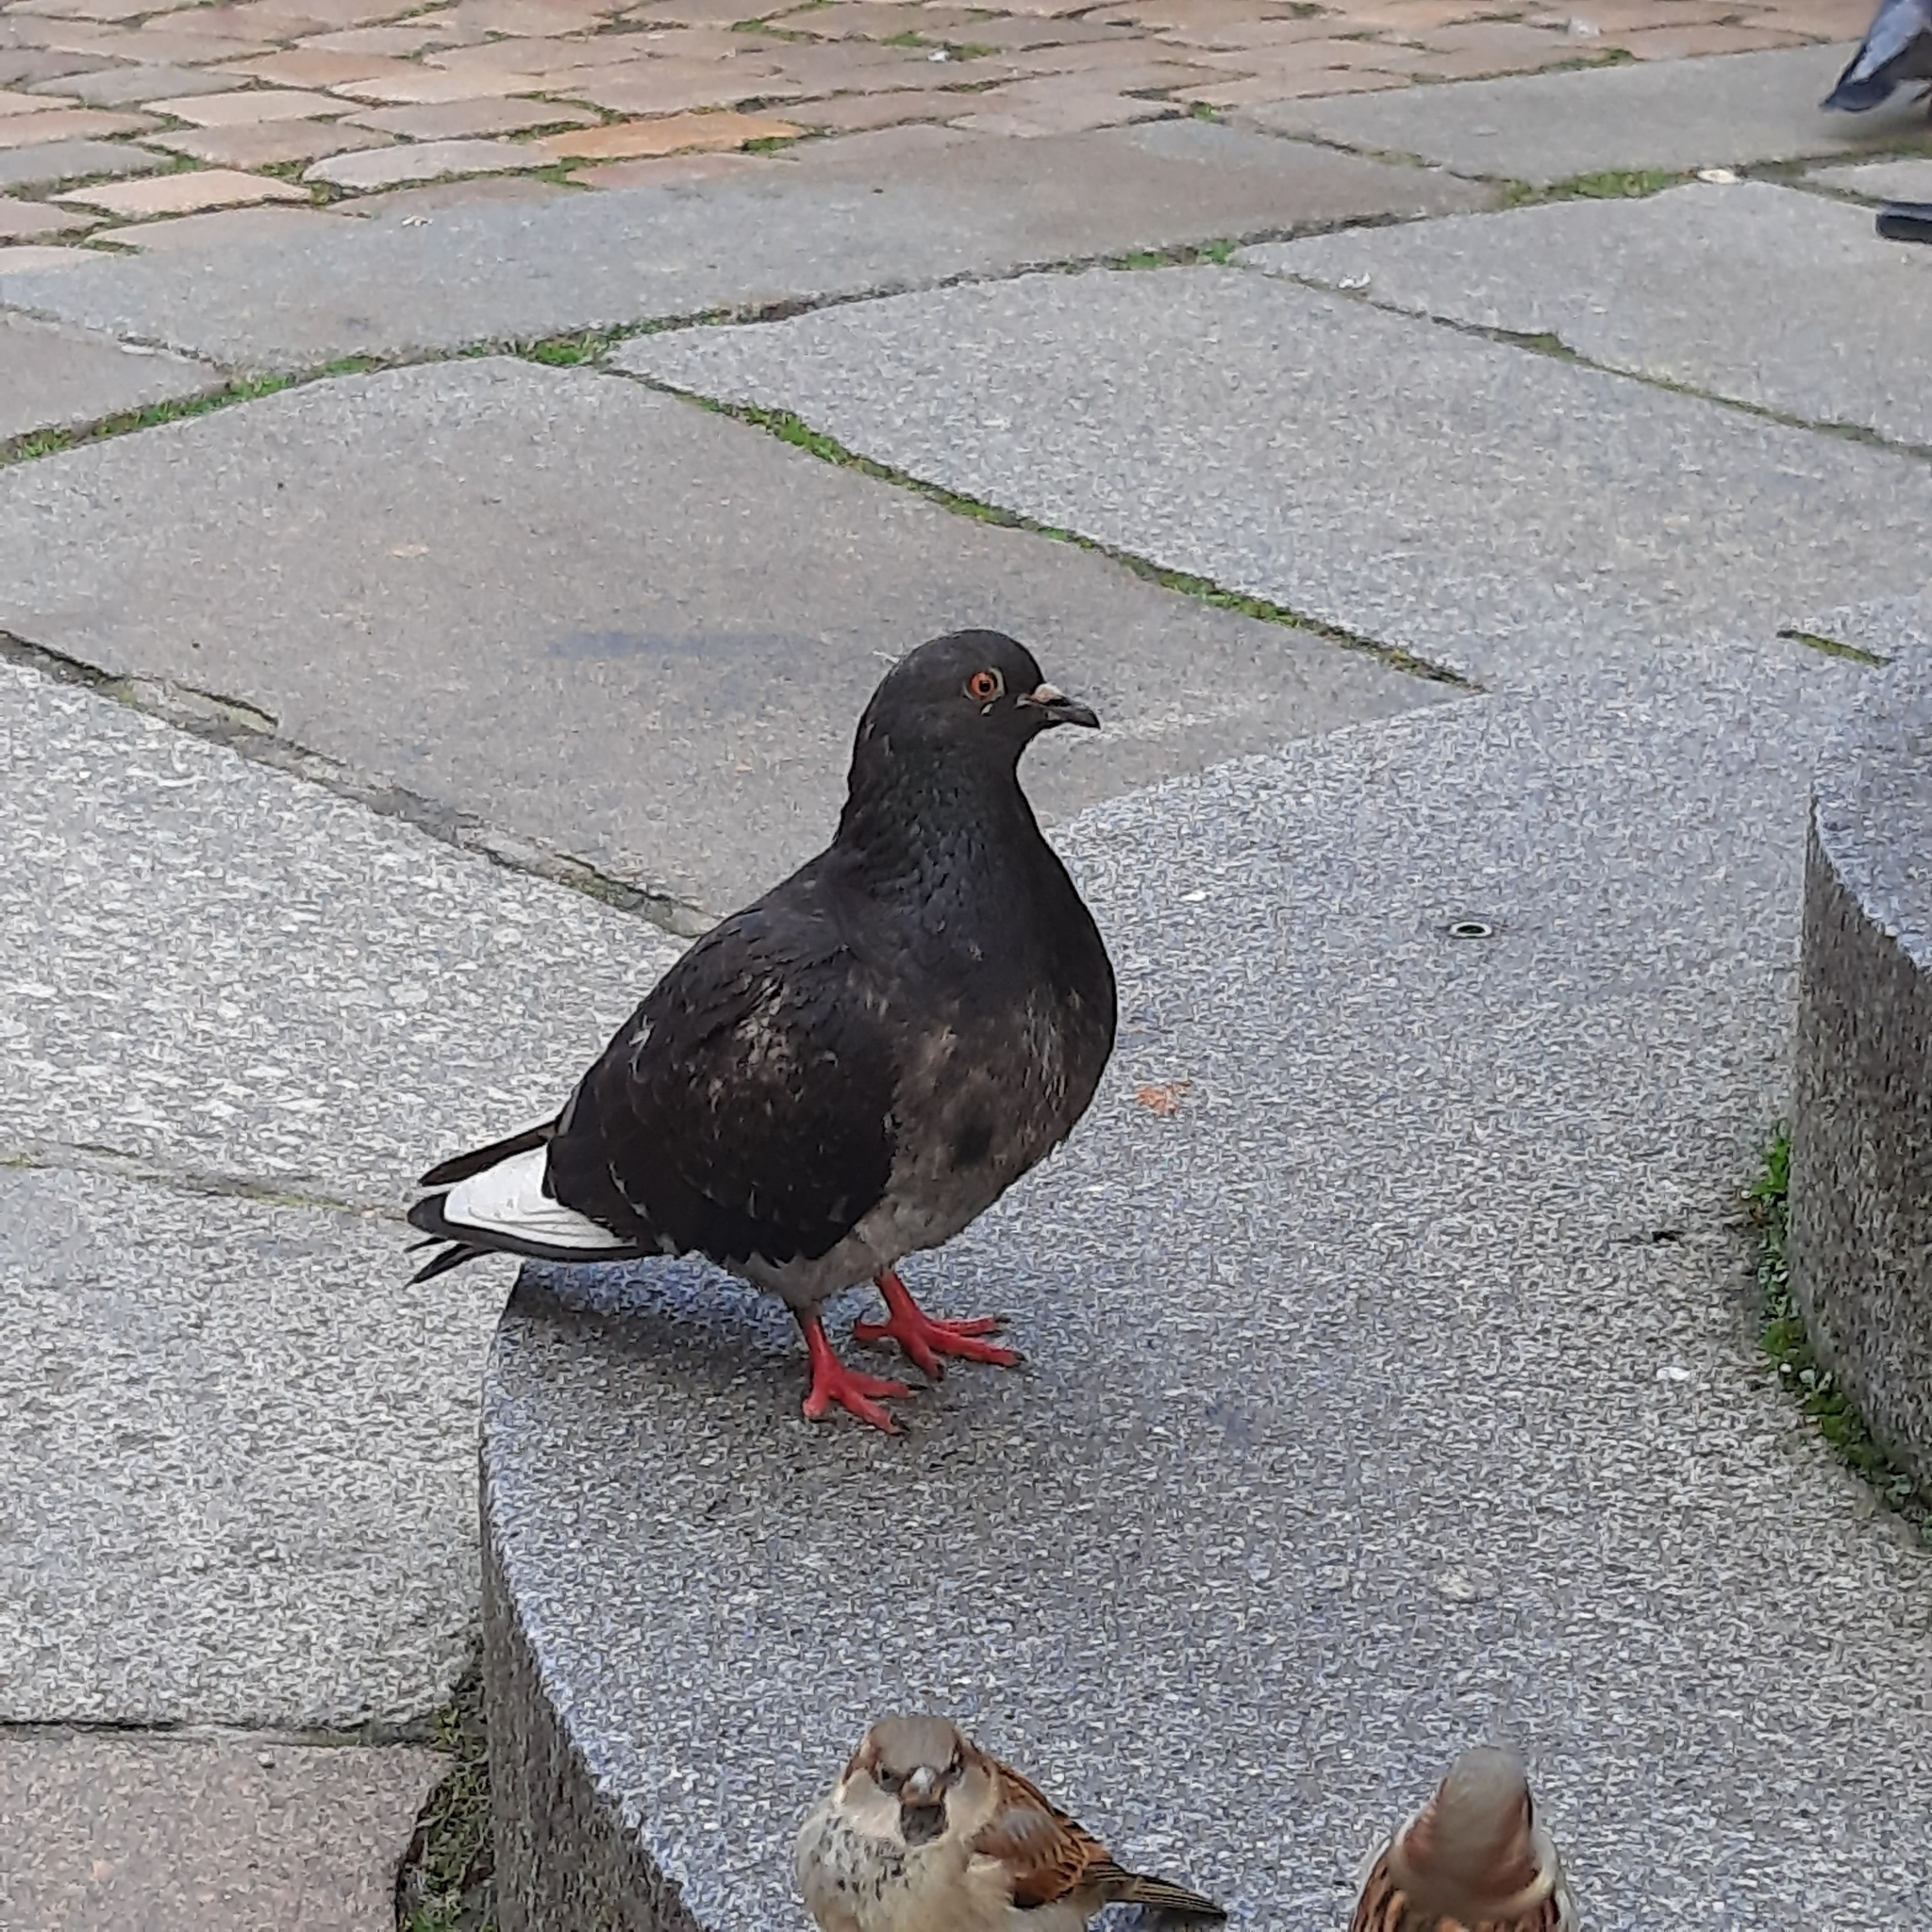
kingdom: Animalia
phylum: Chordata
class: Aves
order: Columbiformes
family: Columbidae
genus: Columba
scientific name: Columba livia
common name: Rock pigeon
